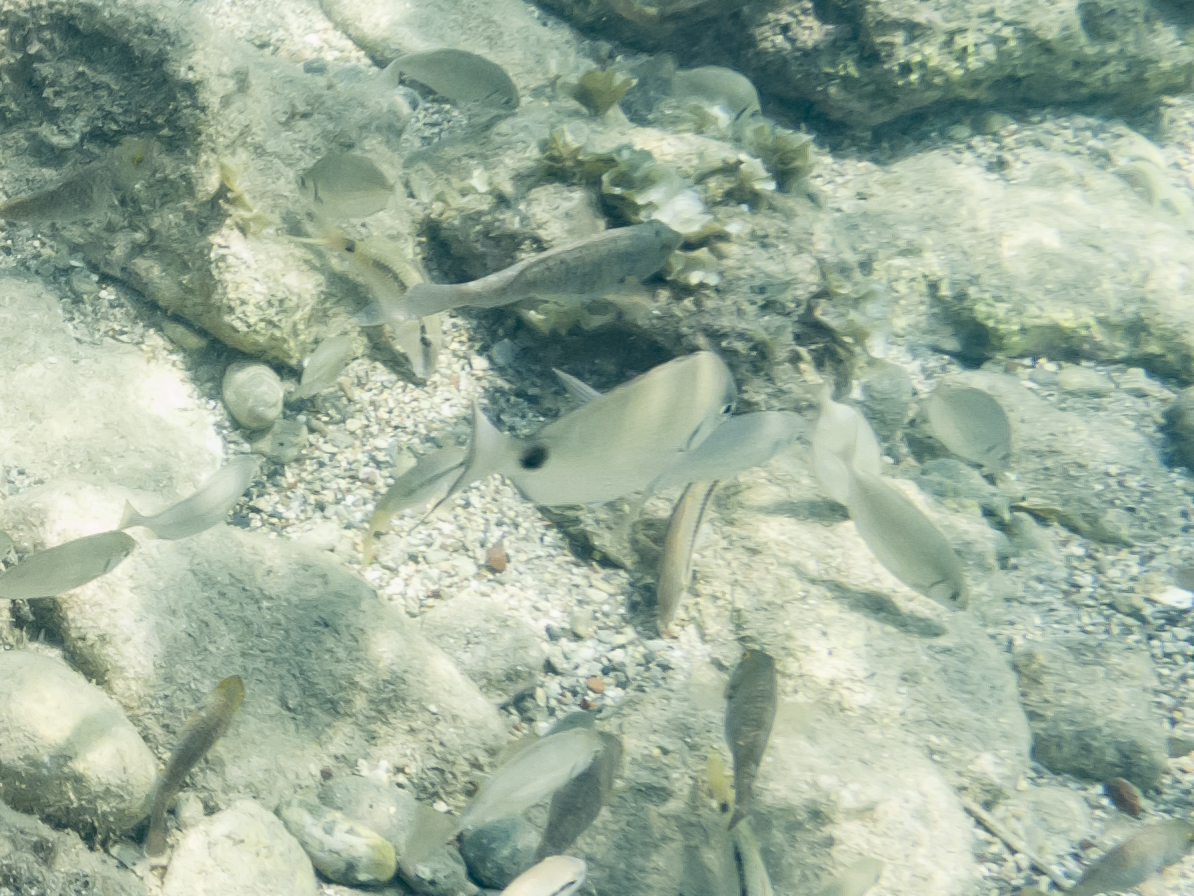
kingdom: Animalia
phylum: Chordata
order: Perciformes
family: Sparidae
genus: Diplodus
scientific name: Diplodus sargus
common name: White seabream
